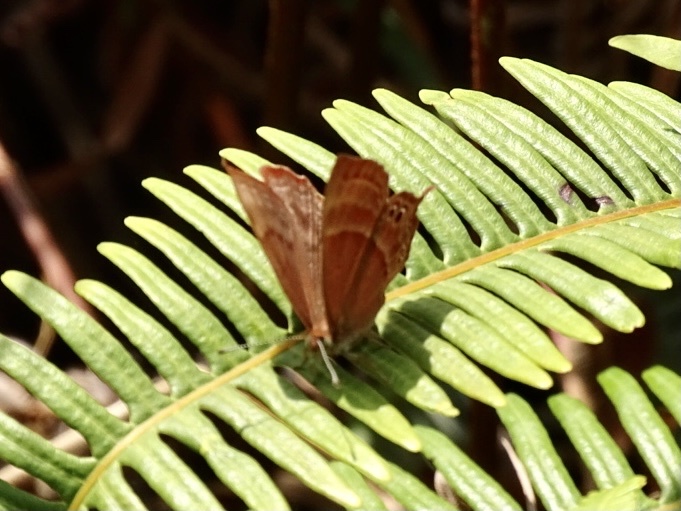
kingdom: Animalia
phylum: Arthropoda
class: Insecta
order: Lepidoptera
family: Lycaenidae
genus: Abisara
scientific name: Abisara echeria
